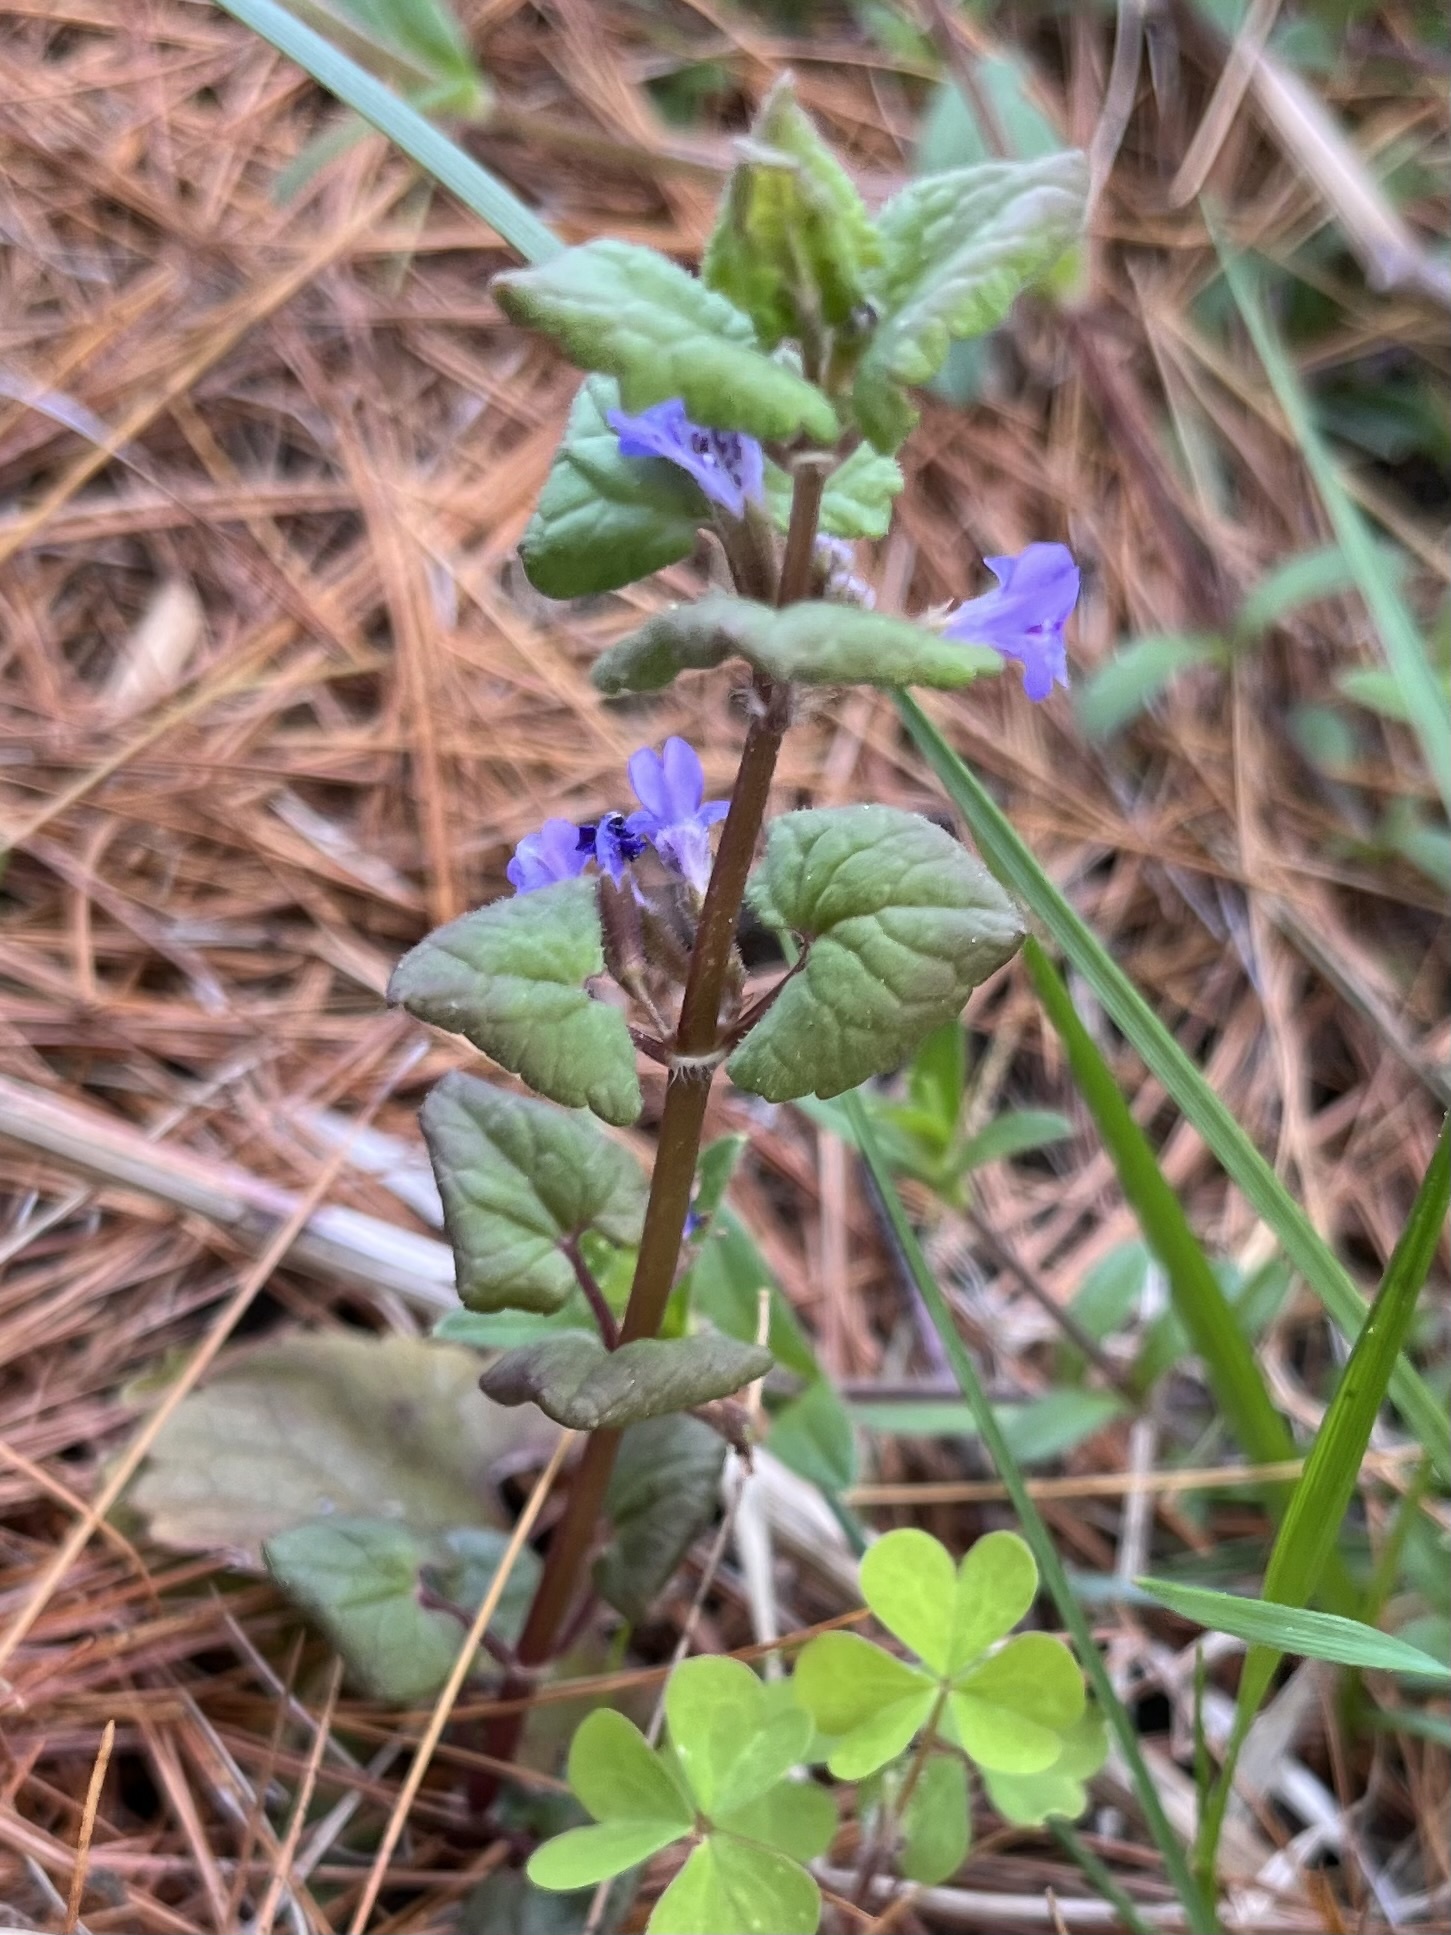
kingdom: Plantae
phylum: Tracheophyta
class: Magnoliopsida
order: Lamiales
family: Lamiaceae
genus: Glechoma
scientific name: Glechoma hederacea
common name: Ground ivy
